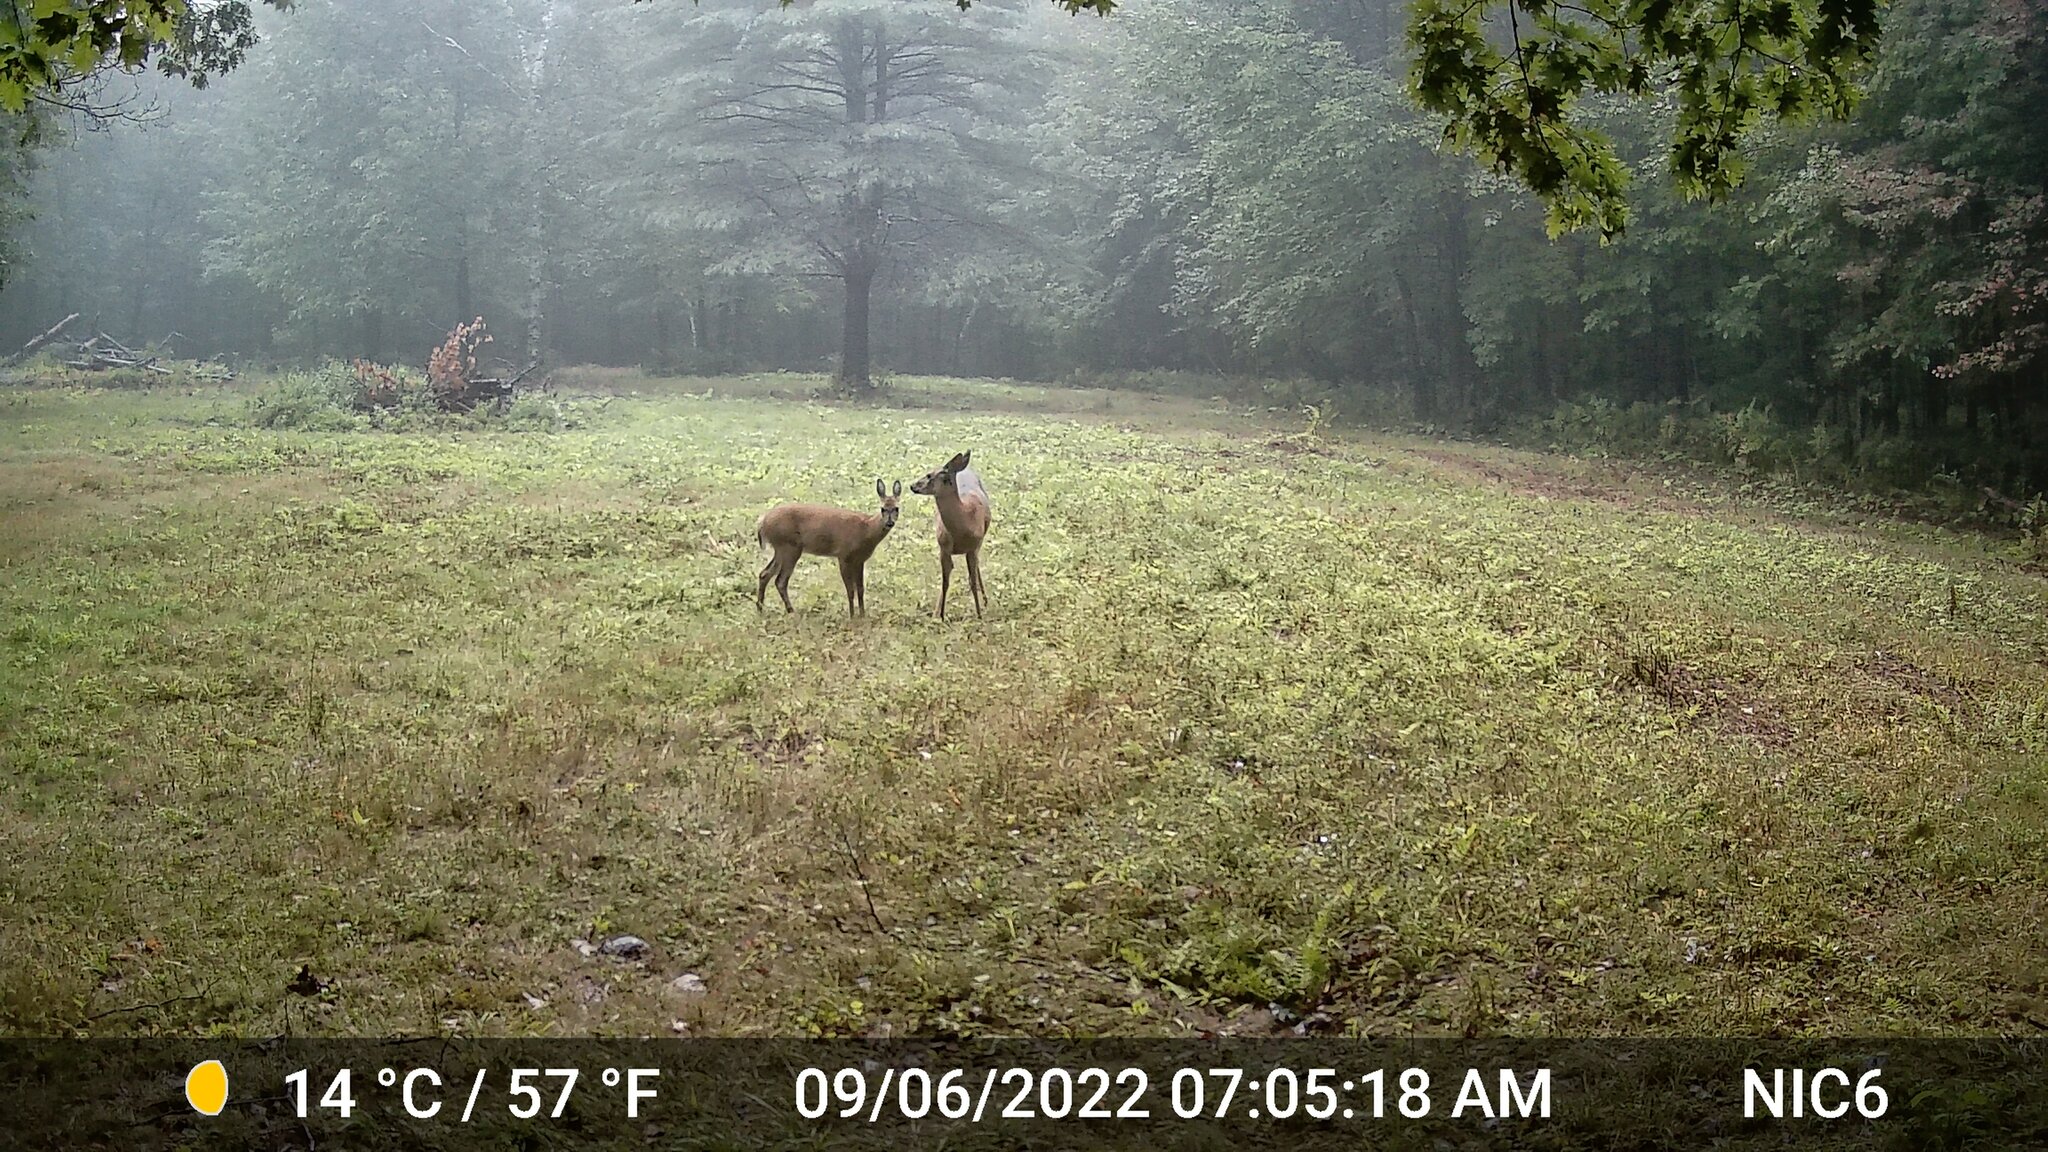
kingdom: Animalia
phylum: Chordata
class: Mammalia
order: Artiodactyla
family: Cervidae
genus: Odocoileus
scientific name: Odocoileus virginianus
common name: White-tailed deer
